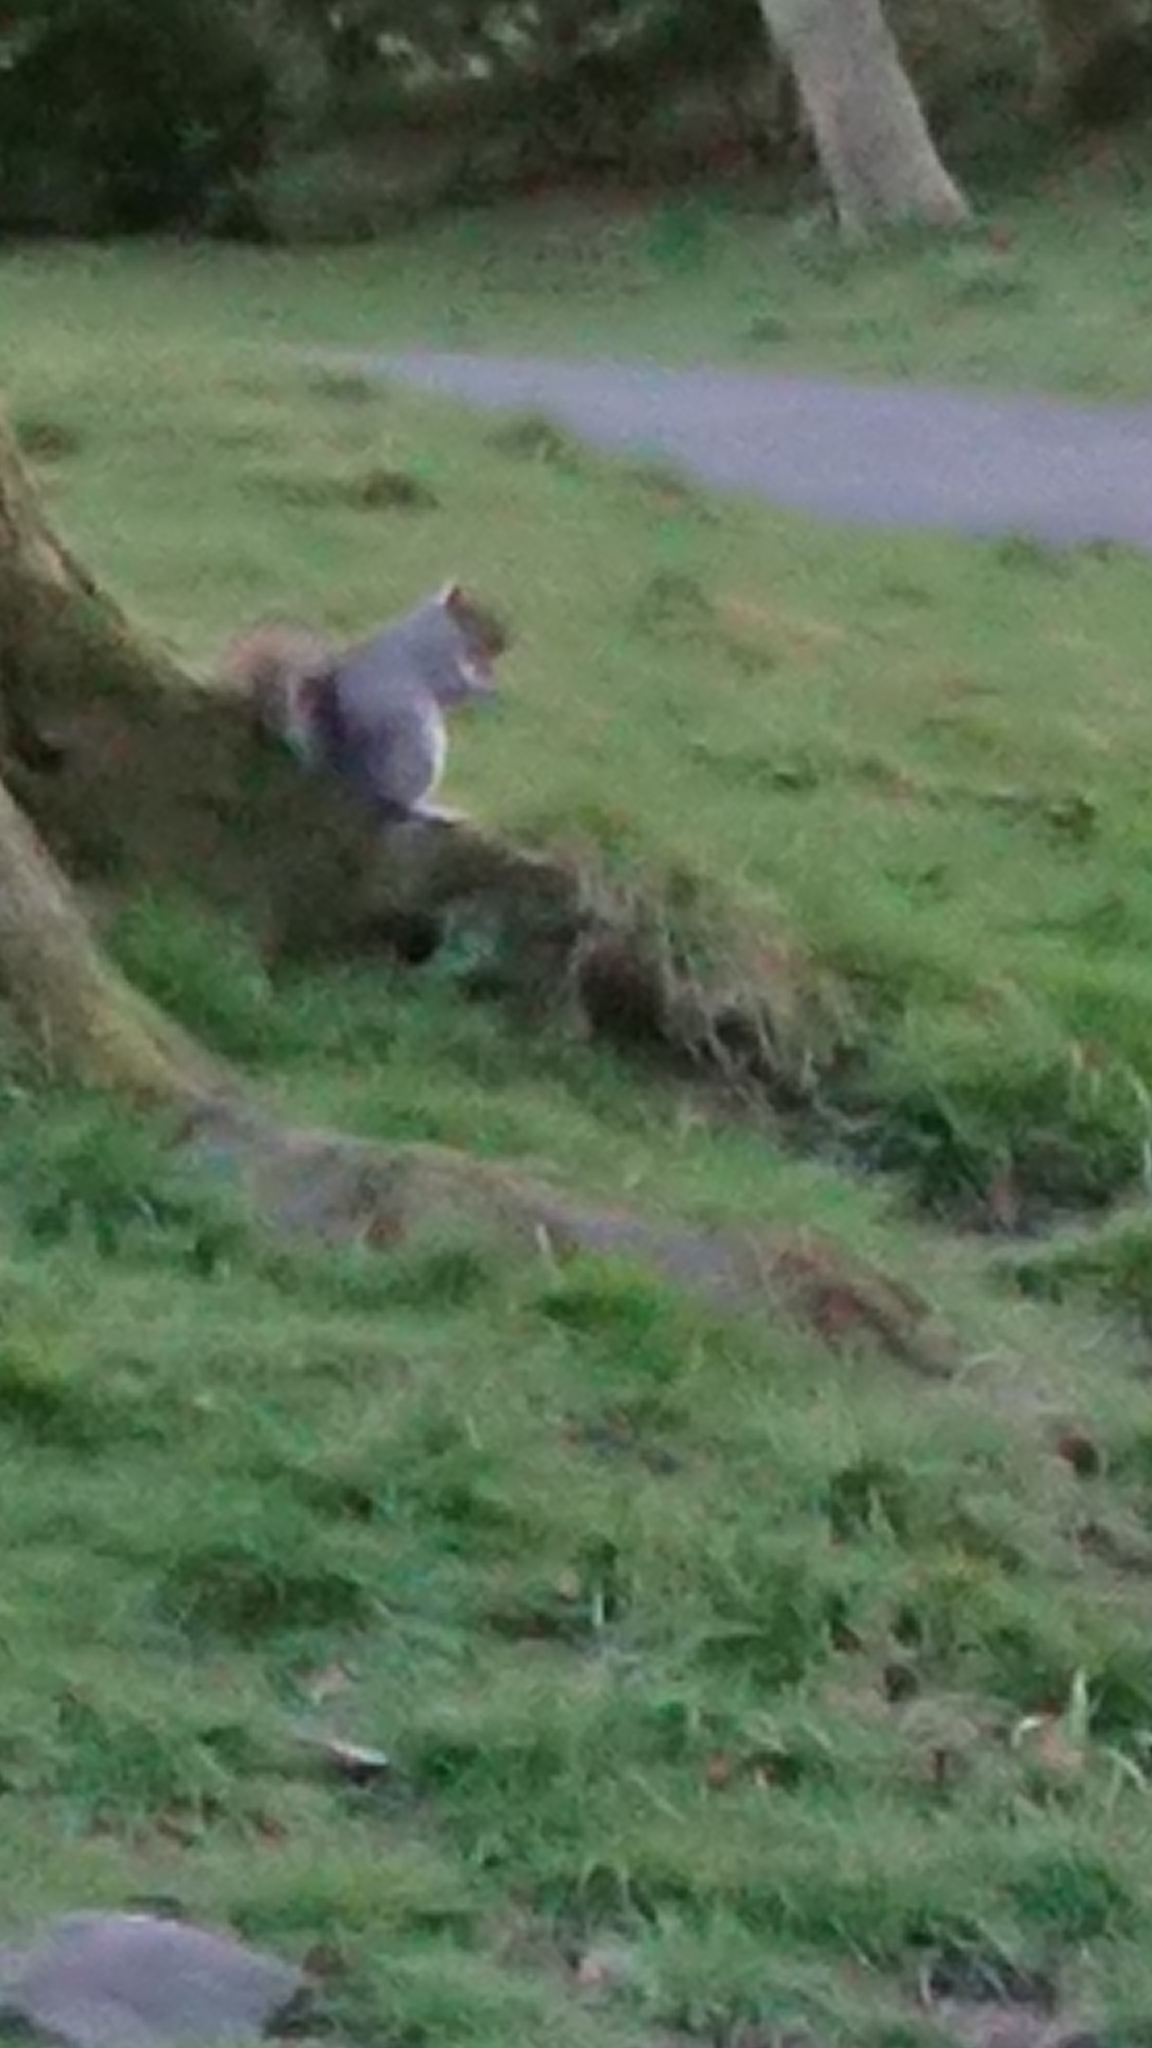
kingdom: Animalia
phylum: Chordata
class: Mammalia
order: Rodentia
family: Sciuridae
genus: Sciurus
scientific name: Sciurus carolinensis
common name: Eastern gray squirrel
